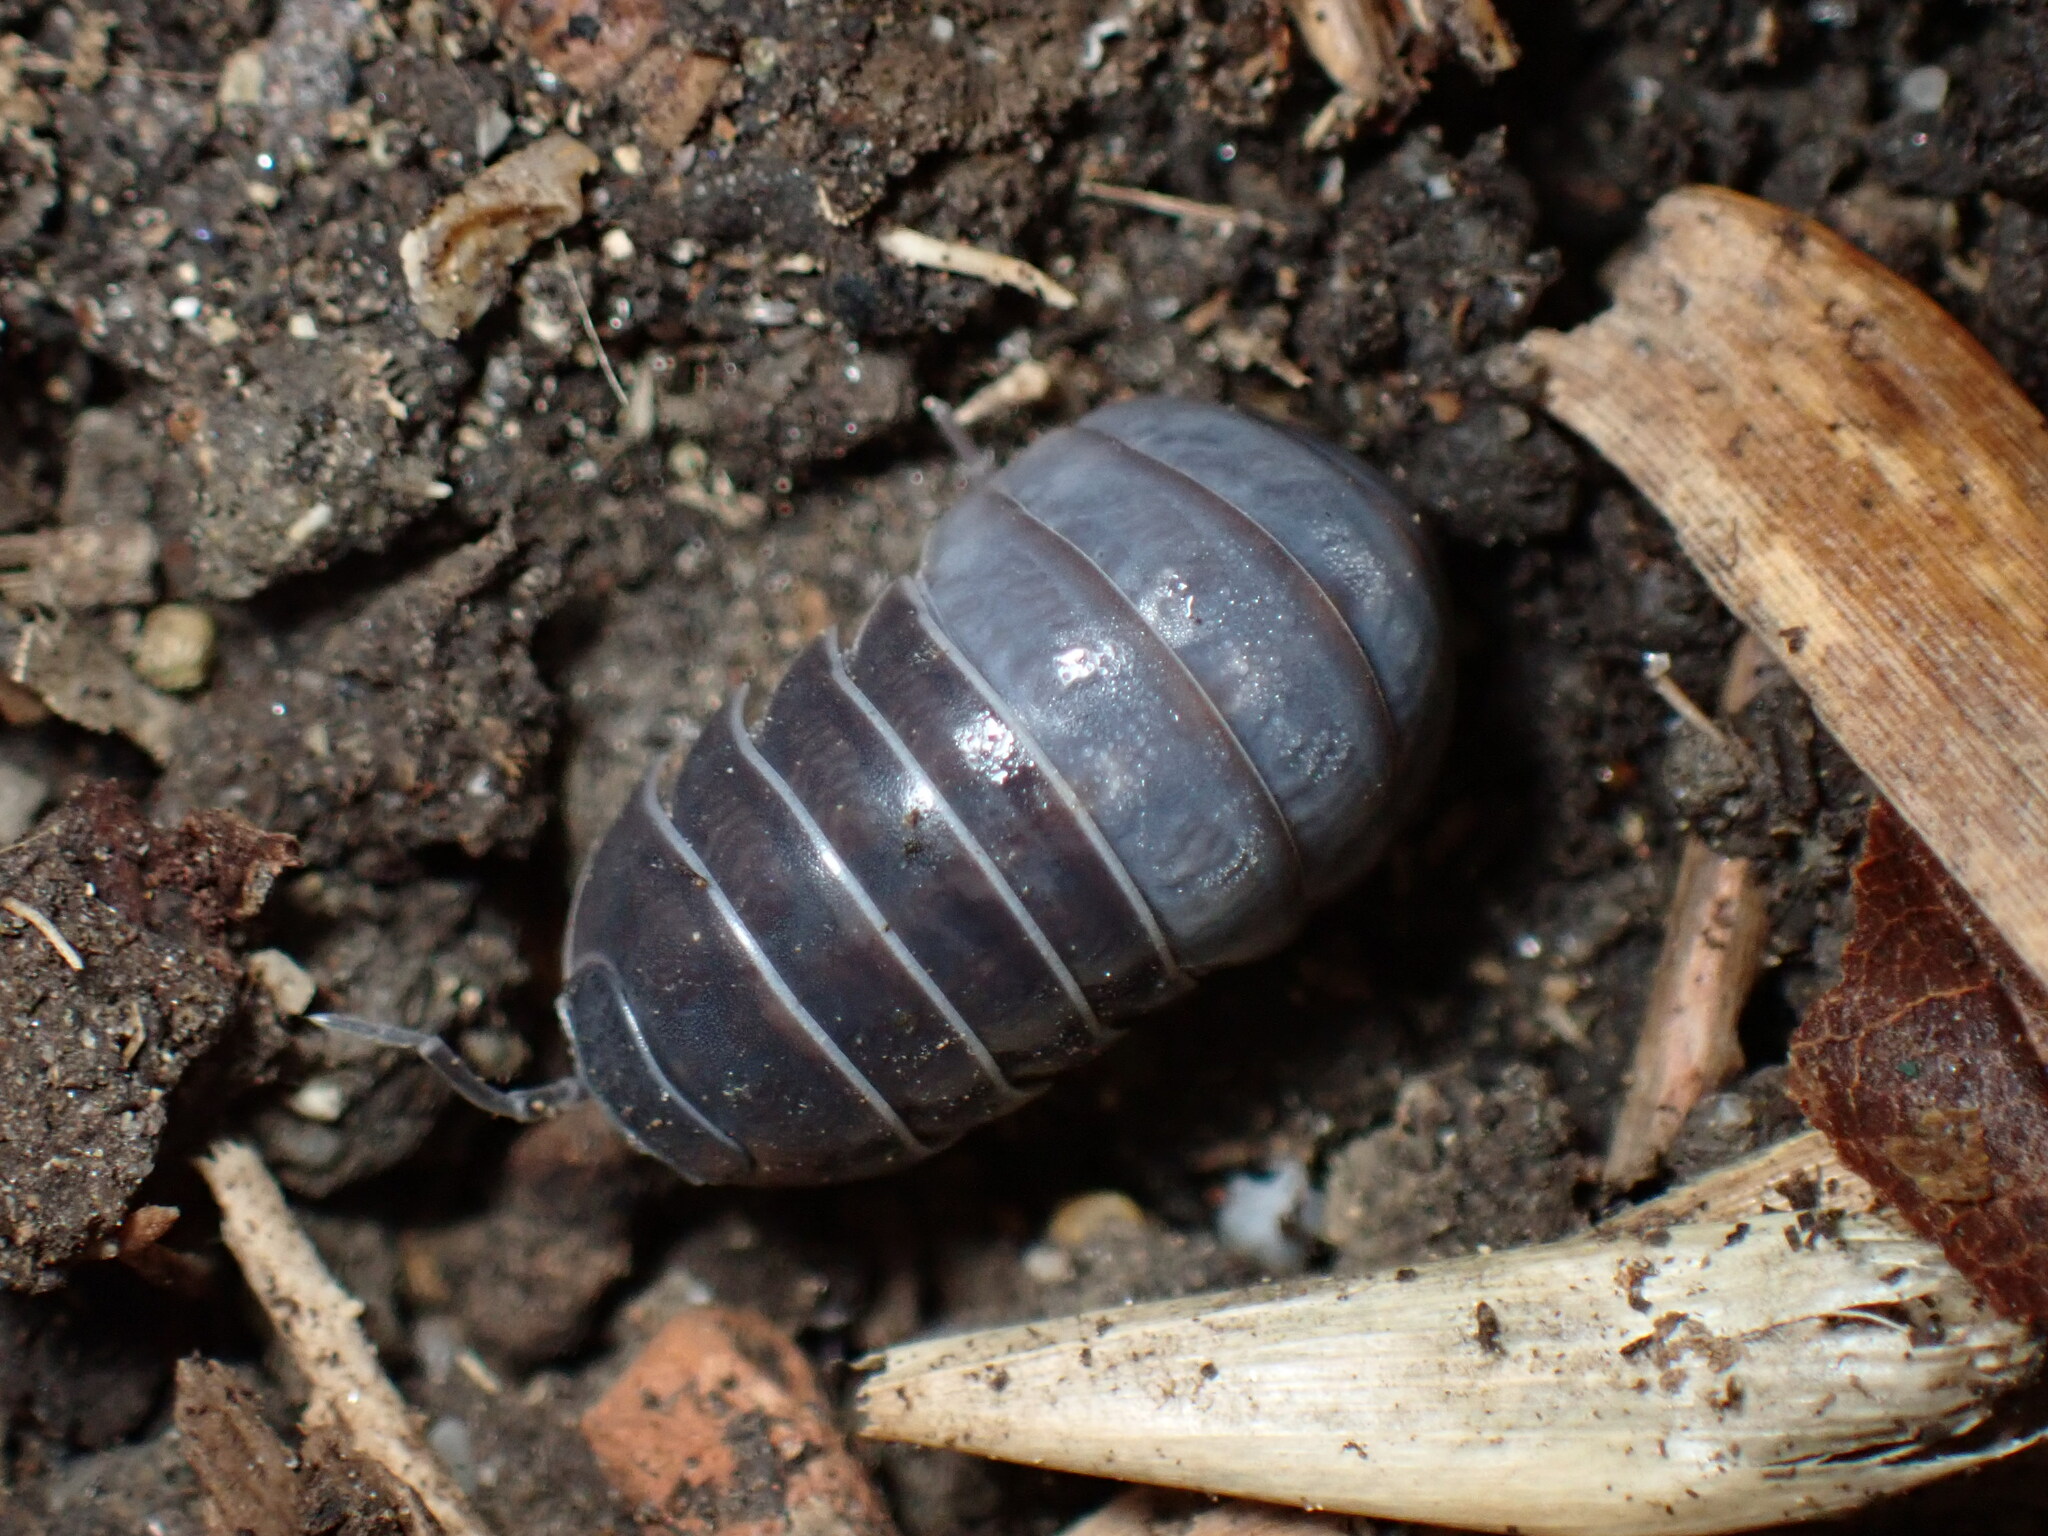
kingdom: Animalia
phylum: Arthropoda
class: Malacostraca
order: Isopoda
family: Armadillidiidae
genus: Armadillidium
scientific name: Armadillidium vulgare
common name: Common pill woodlouse
